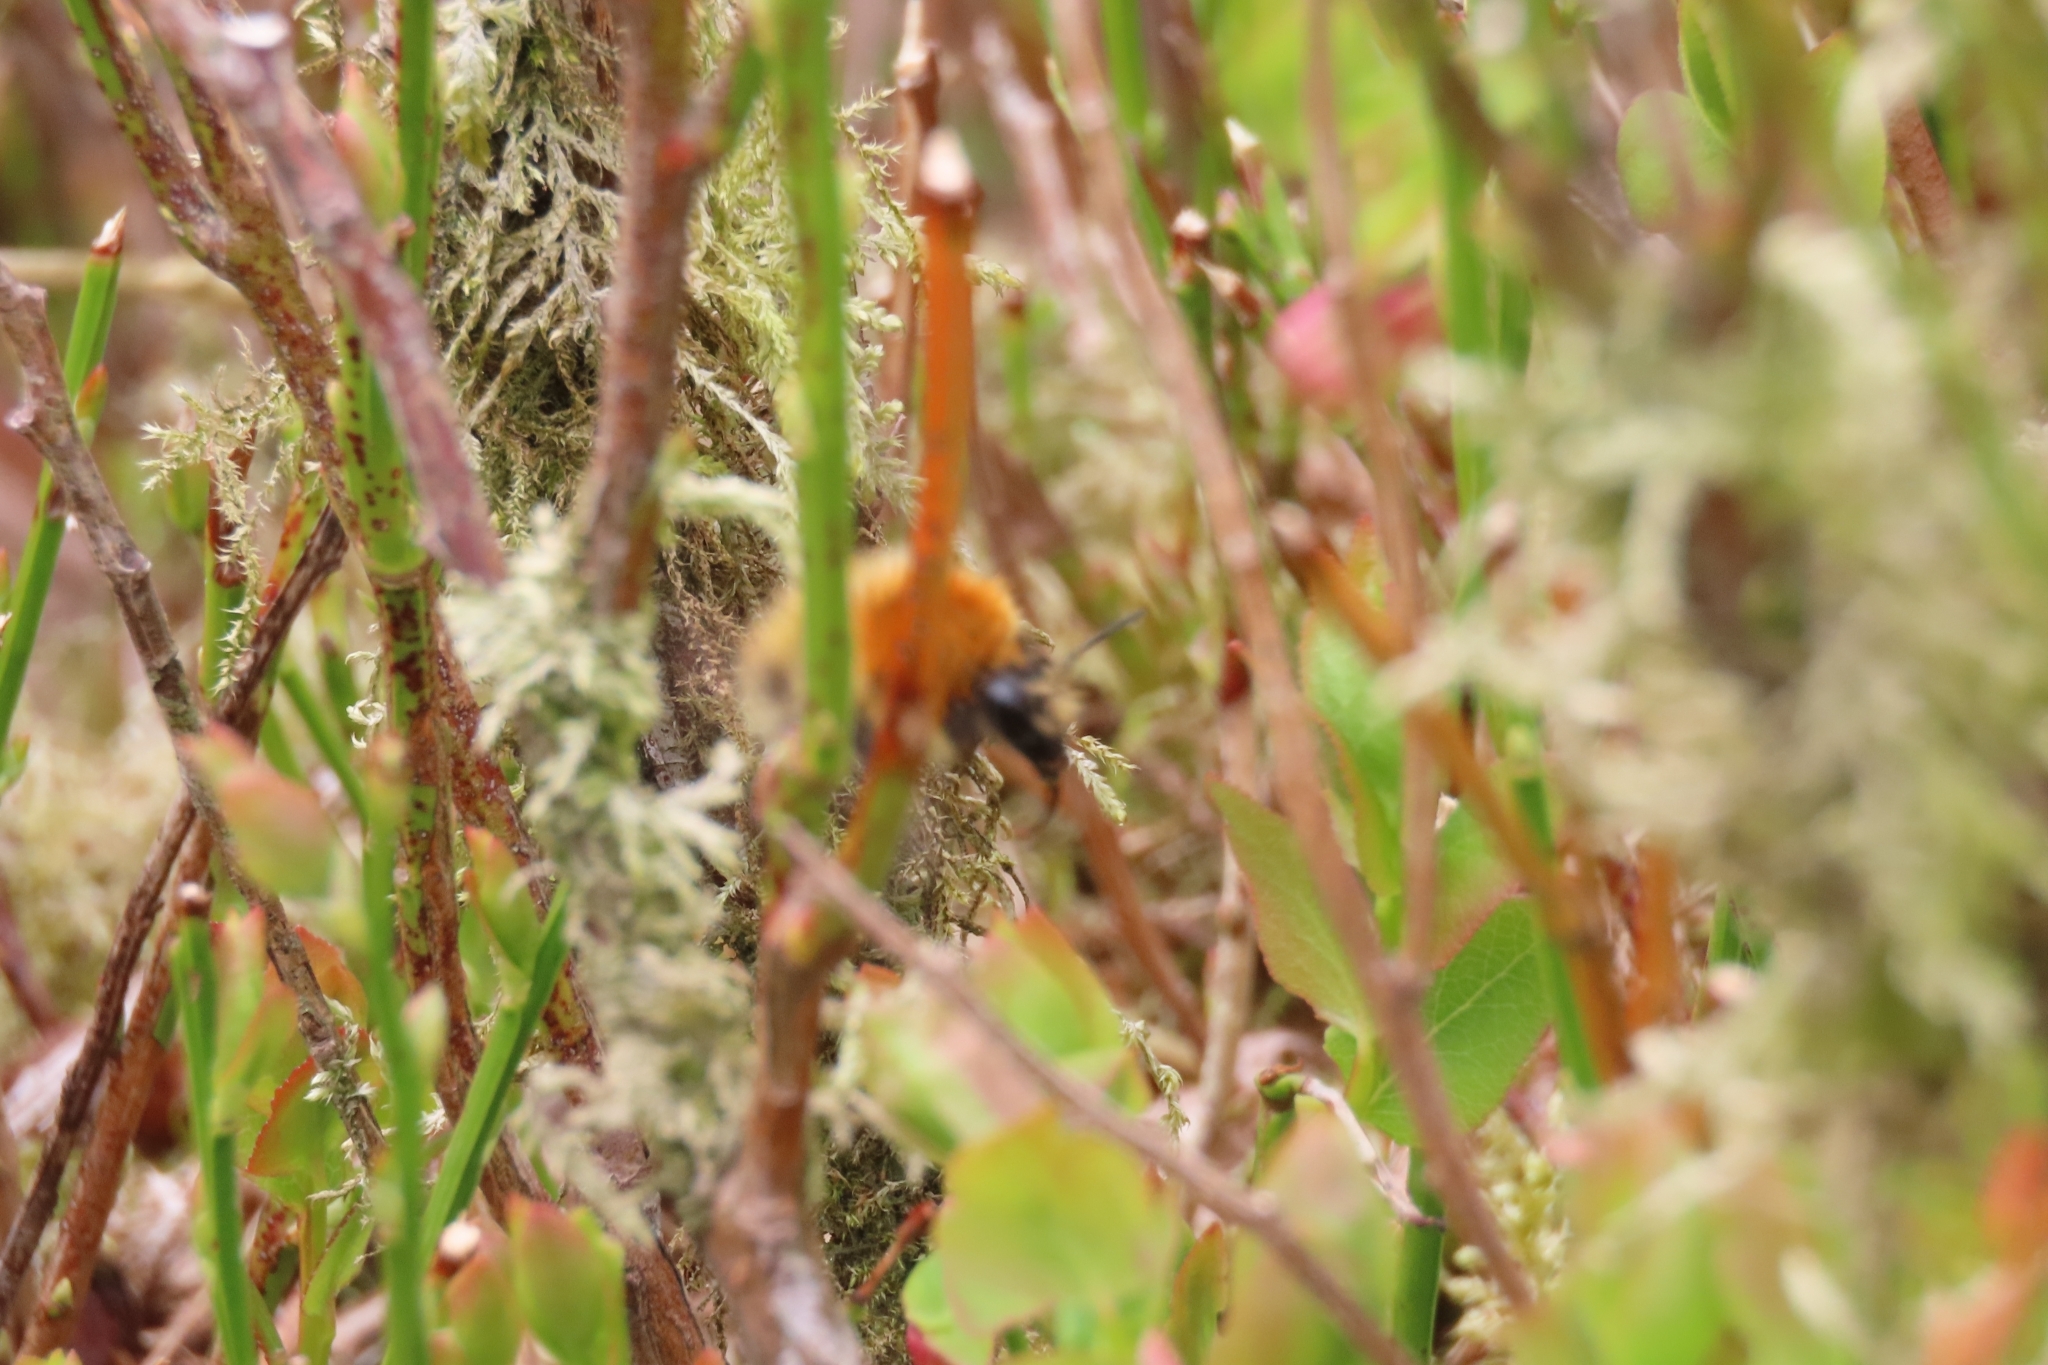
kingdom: Animalia
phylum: Arthropoda
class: Insecta
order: Hymenoptera
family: Apidae
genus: Bombus
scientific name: Bombus pascuorum
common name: Common carder bee
